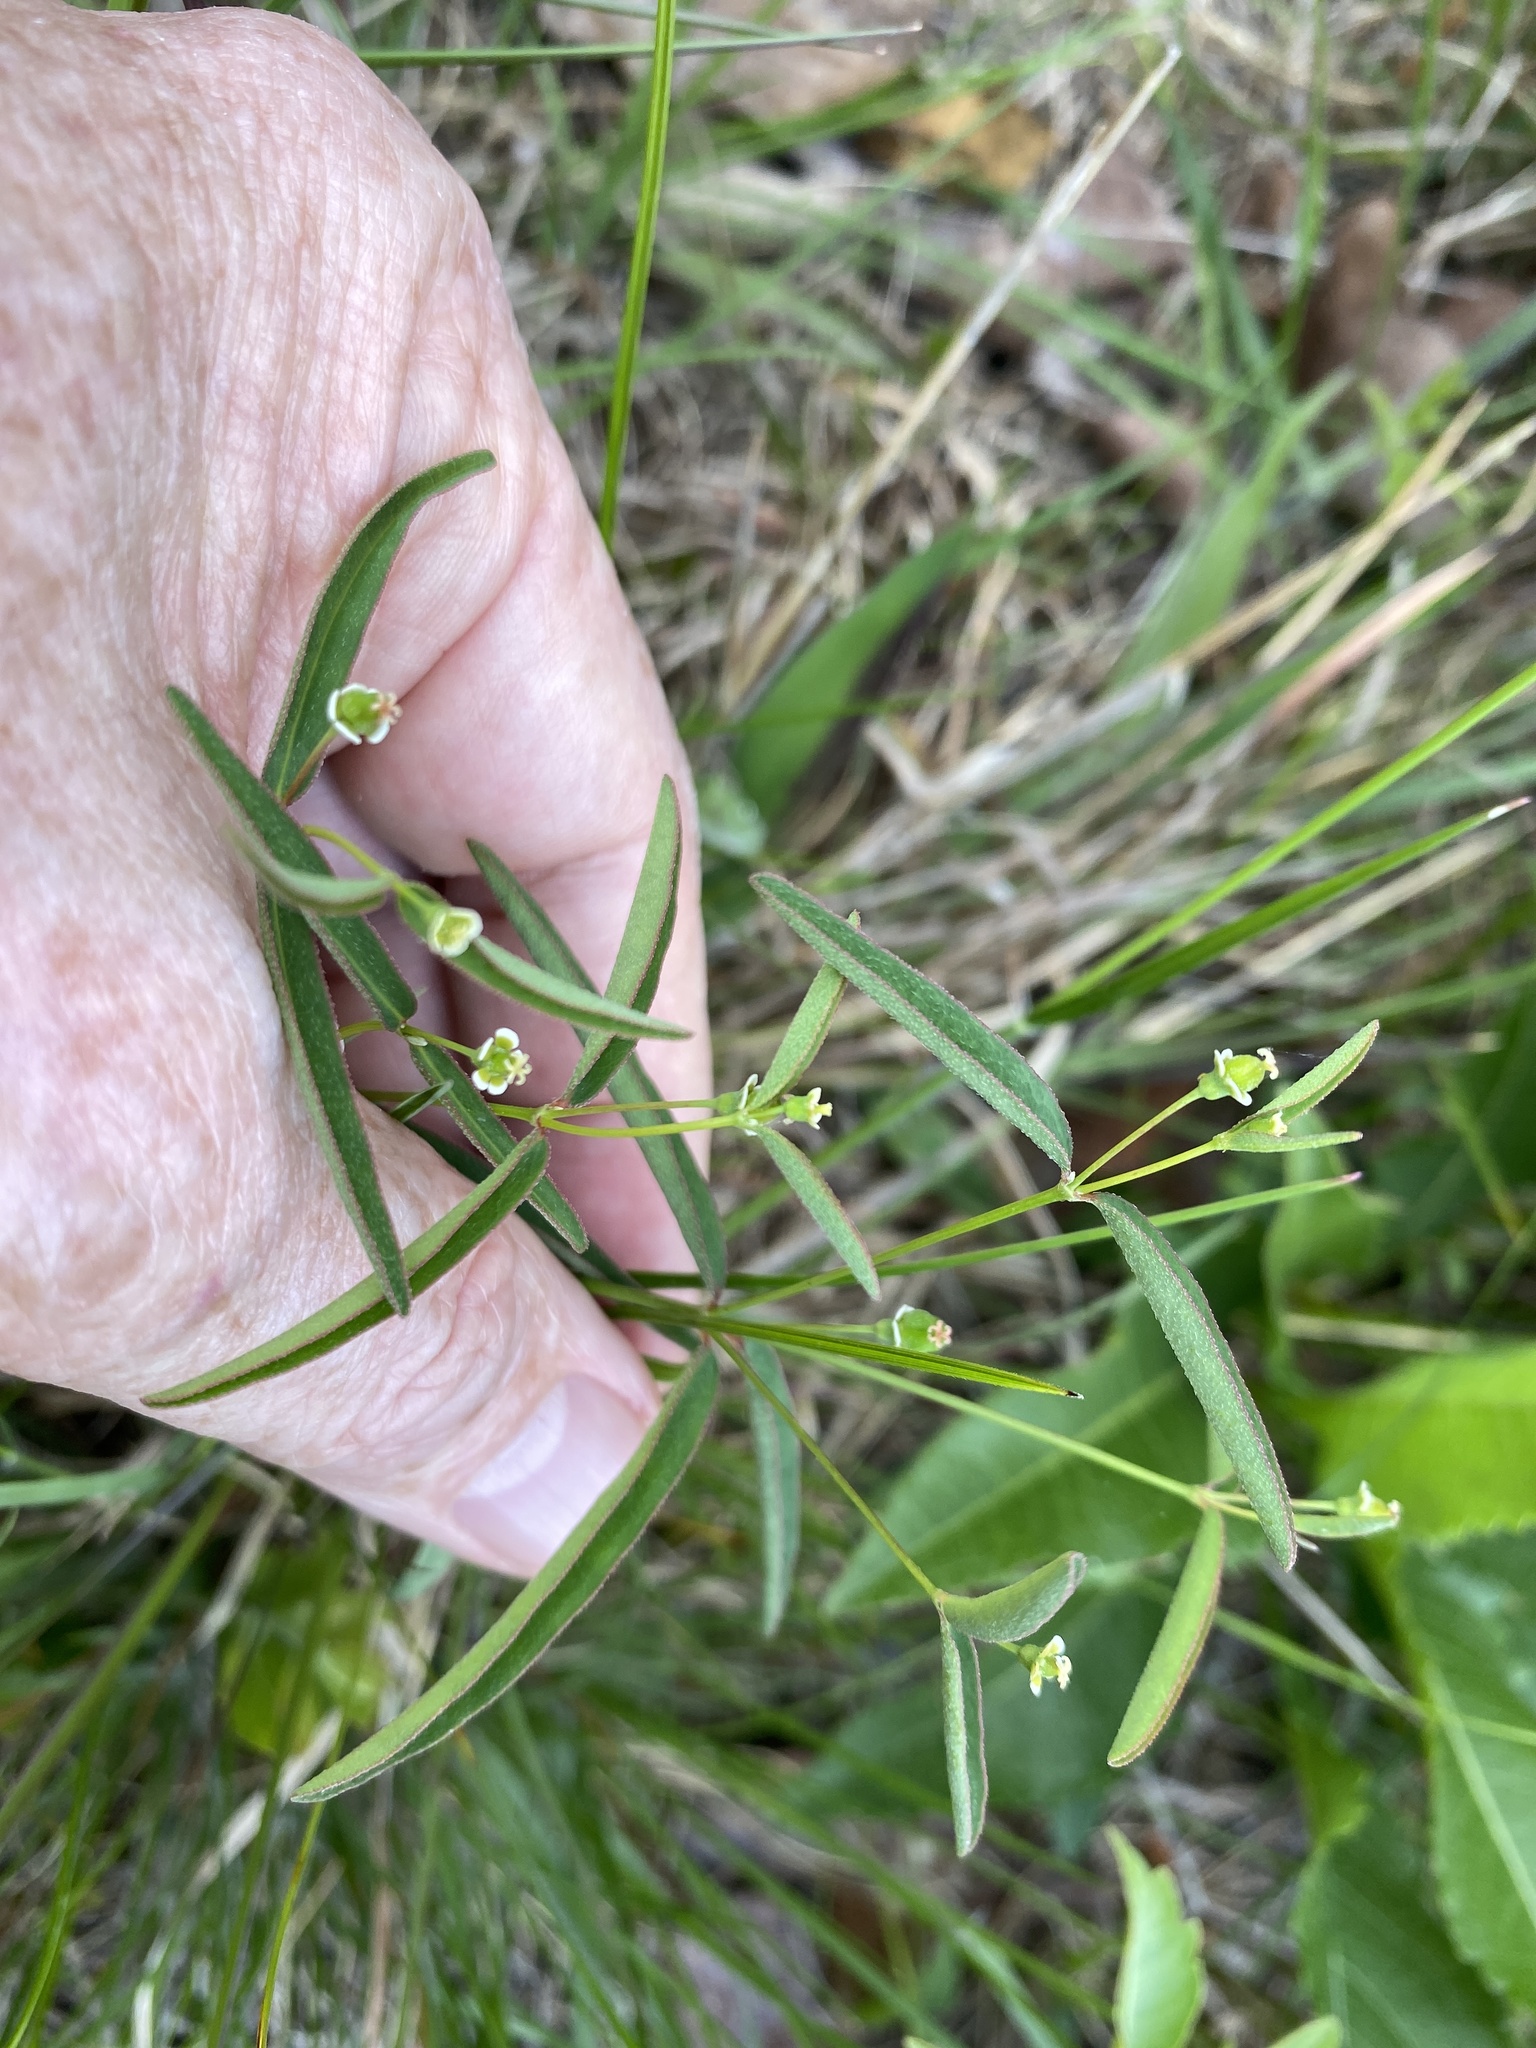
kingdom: Plantae
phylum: Tracheophyta
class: Magnoliopsida
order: Malpighiales
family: Euphorbiaceae
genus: Euphorbia
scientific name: Euphorbia curtisii
